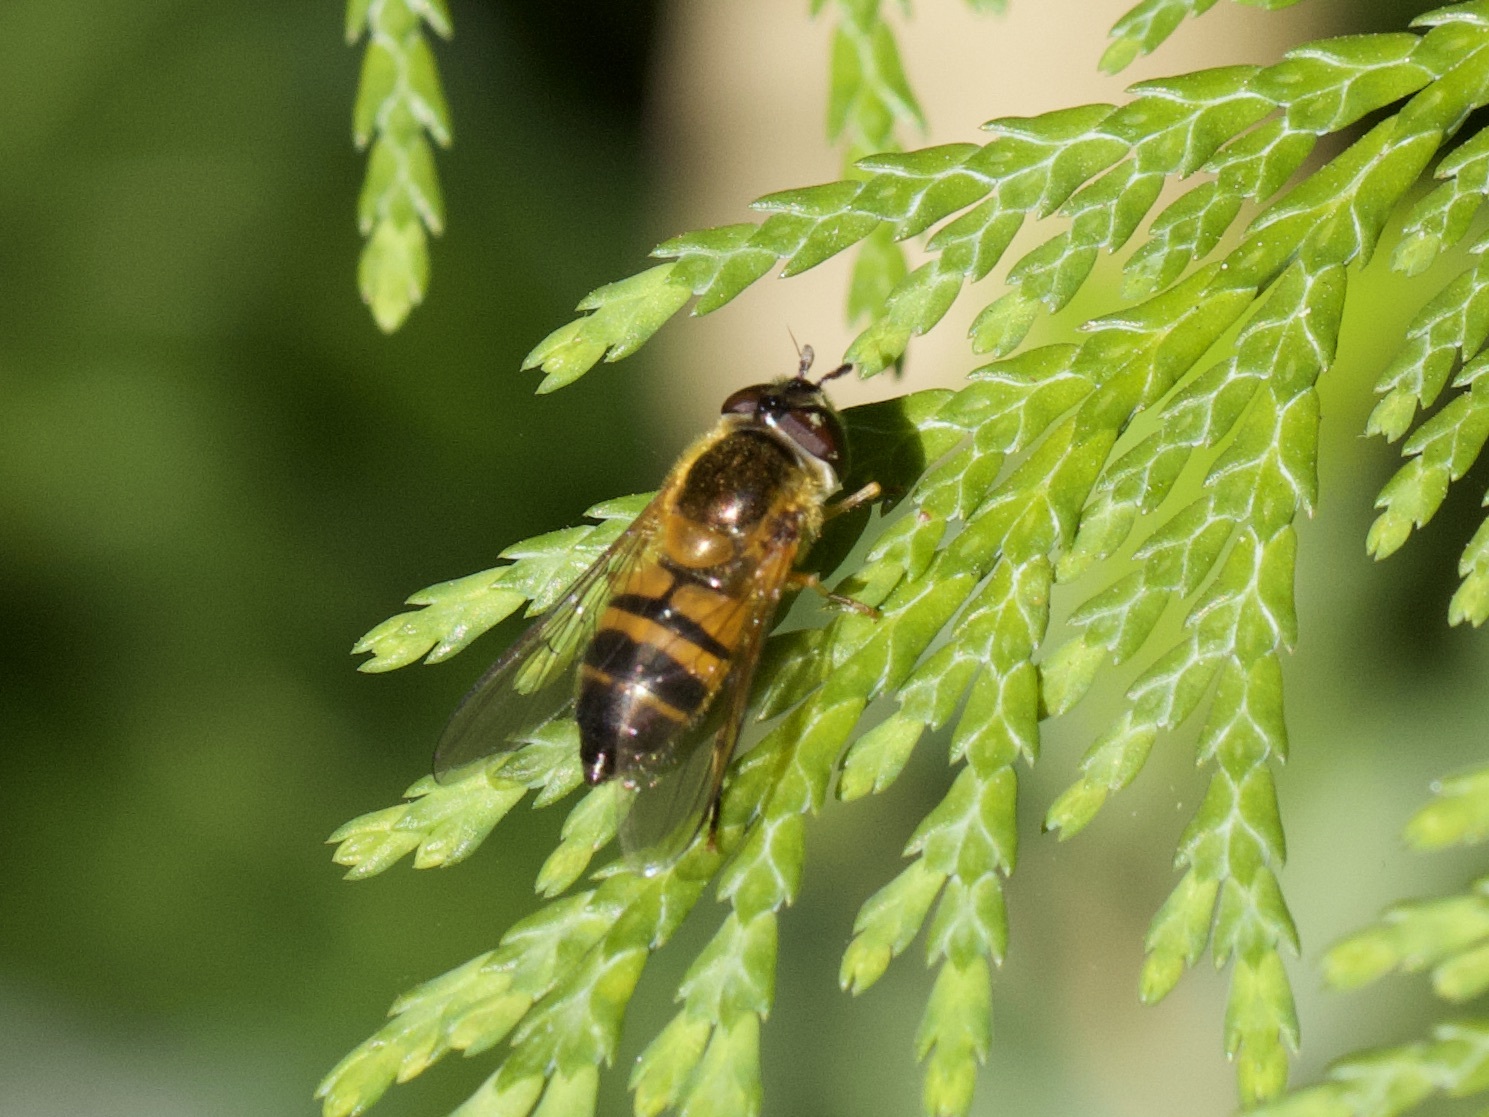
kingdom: Animalia
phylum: Arthropoda
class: Insecta
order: Diptera
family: Syrphidae
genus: Epistrophe
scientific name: Epistrophe eligans
